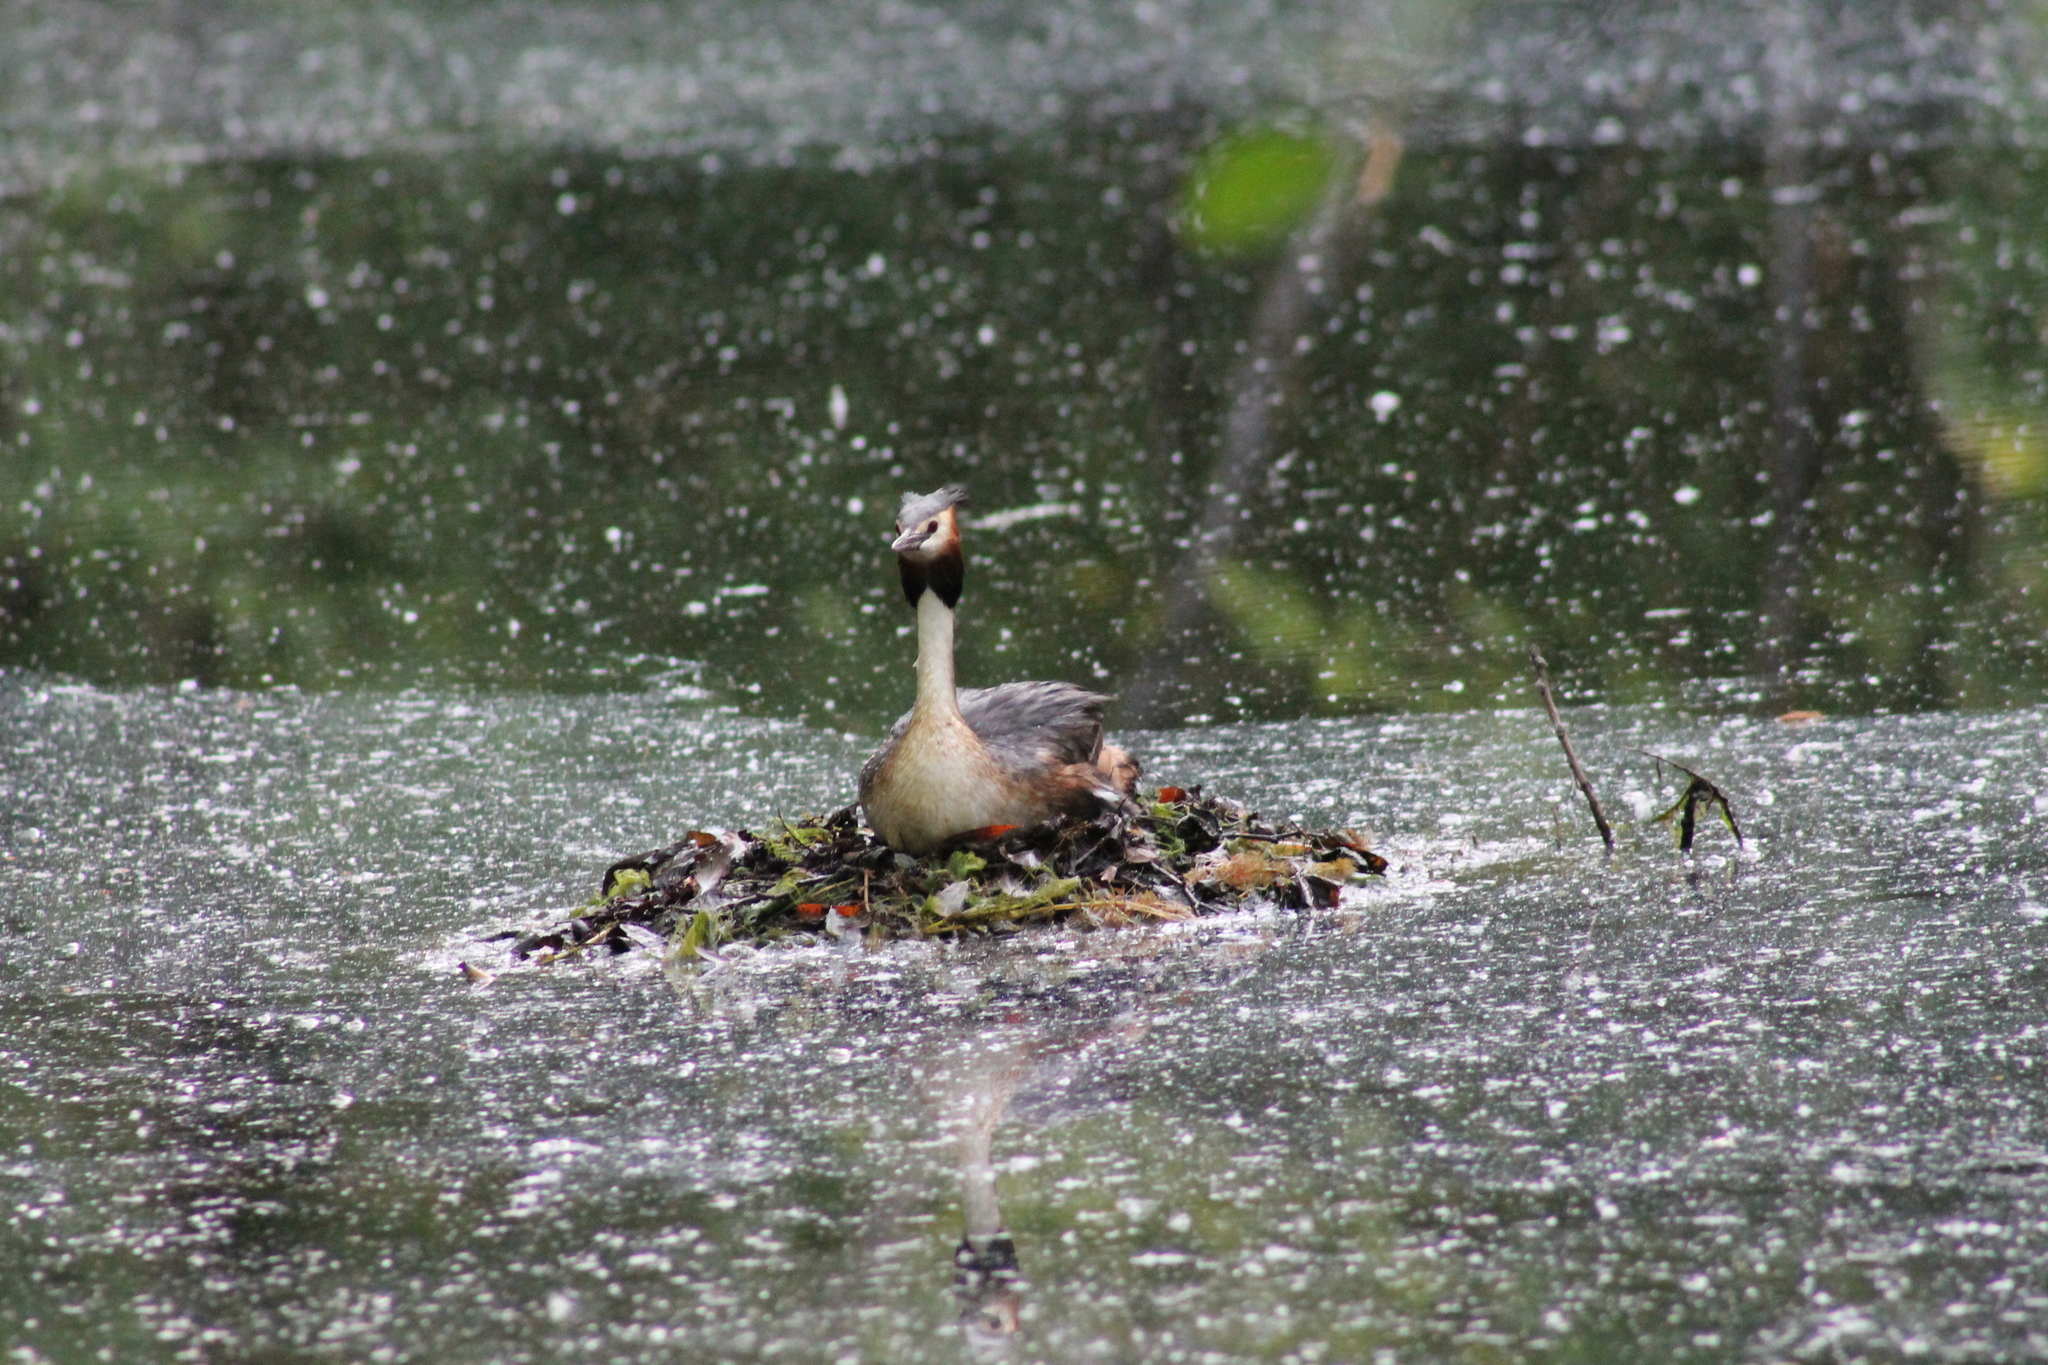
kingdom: Animalia
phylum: Chordata
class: Aves
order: Podicipediformes
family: Podicipedidae
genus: Podiceps
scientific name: Podiceps cristatus
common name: Great crested grebe
